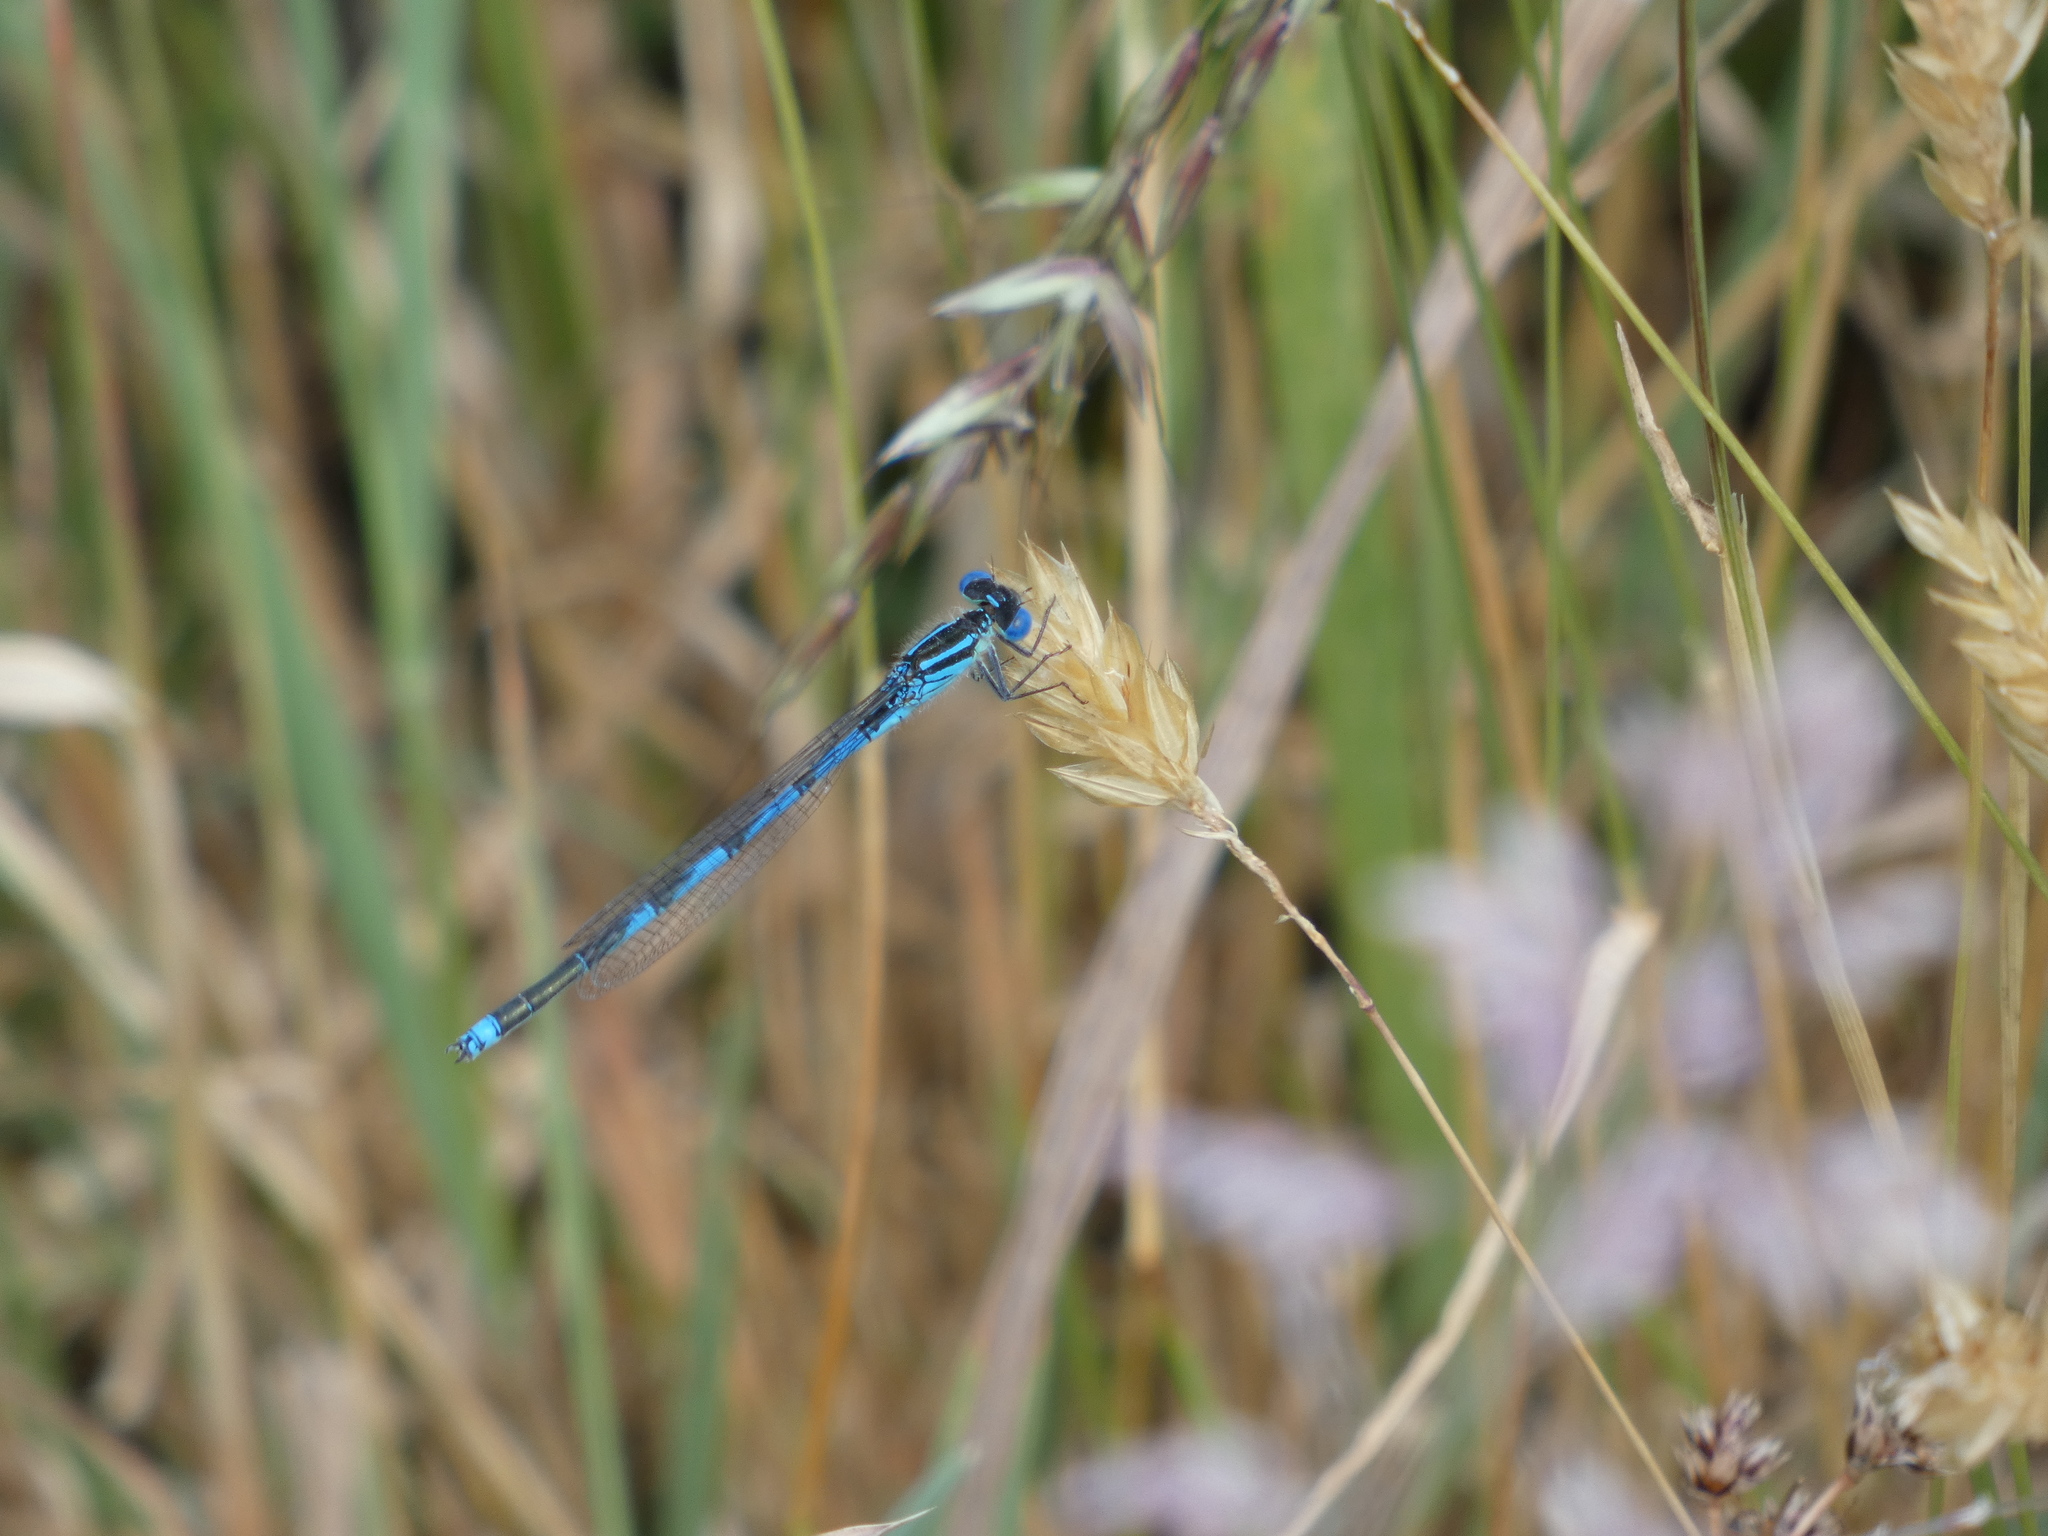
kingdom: Animalia
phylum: Arthropoda
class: Insecta
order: Odonata
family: Coenagrionidae
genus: Erythromma
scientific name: Erythromma lindenii
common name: Blue-eye
